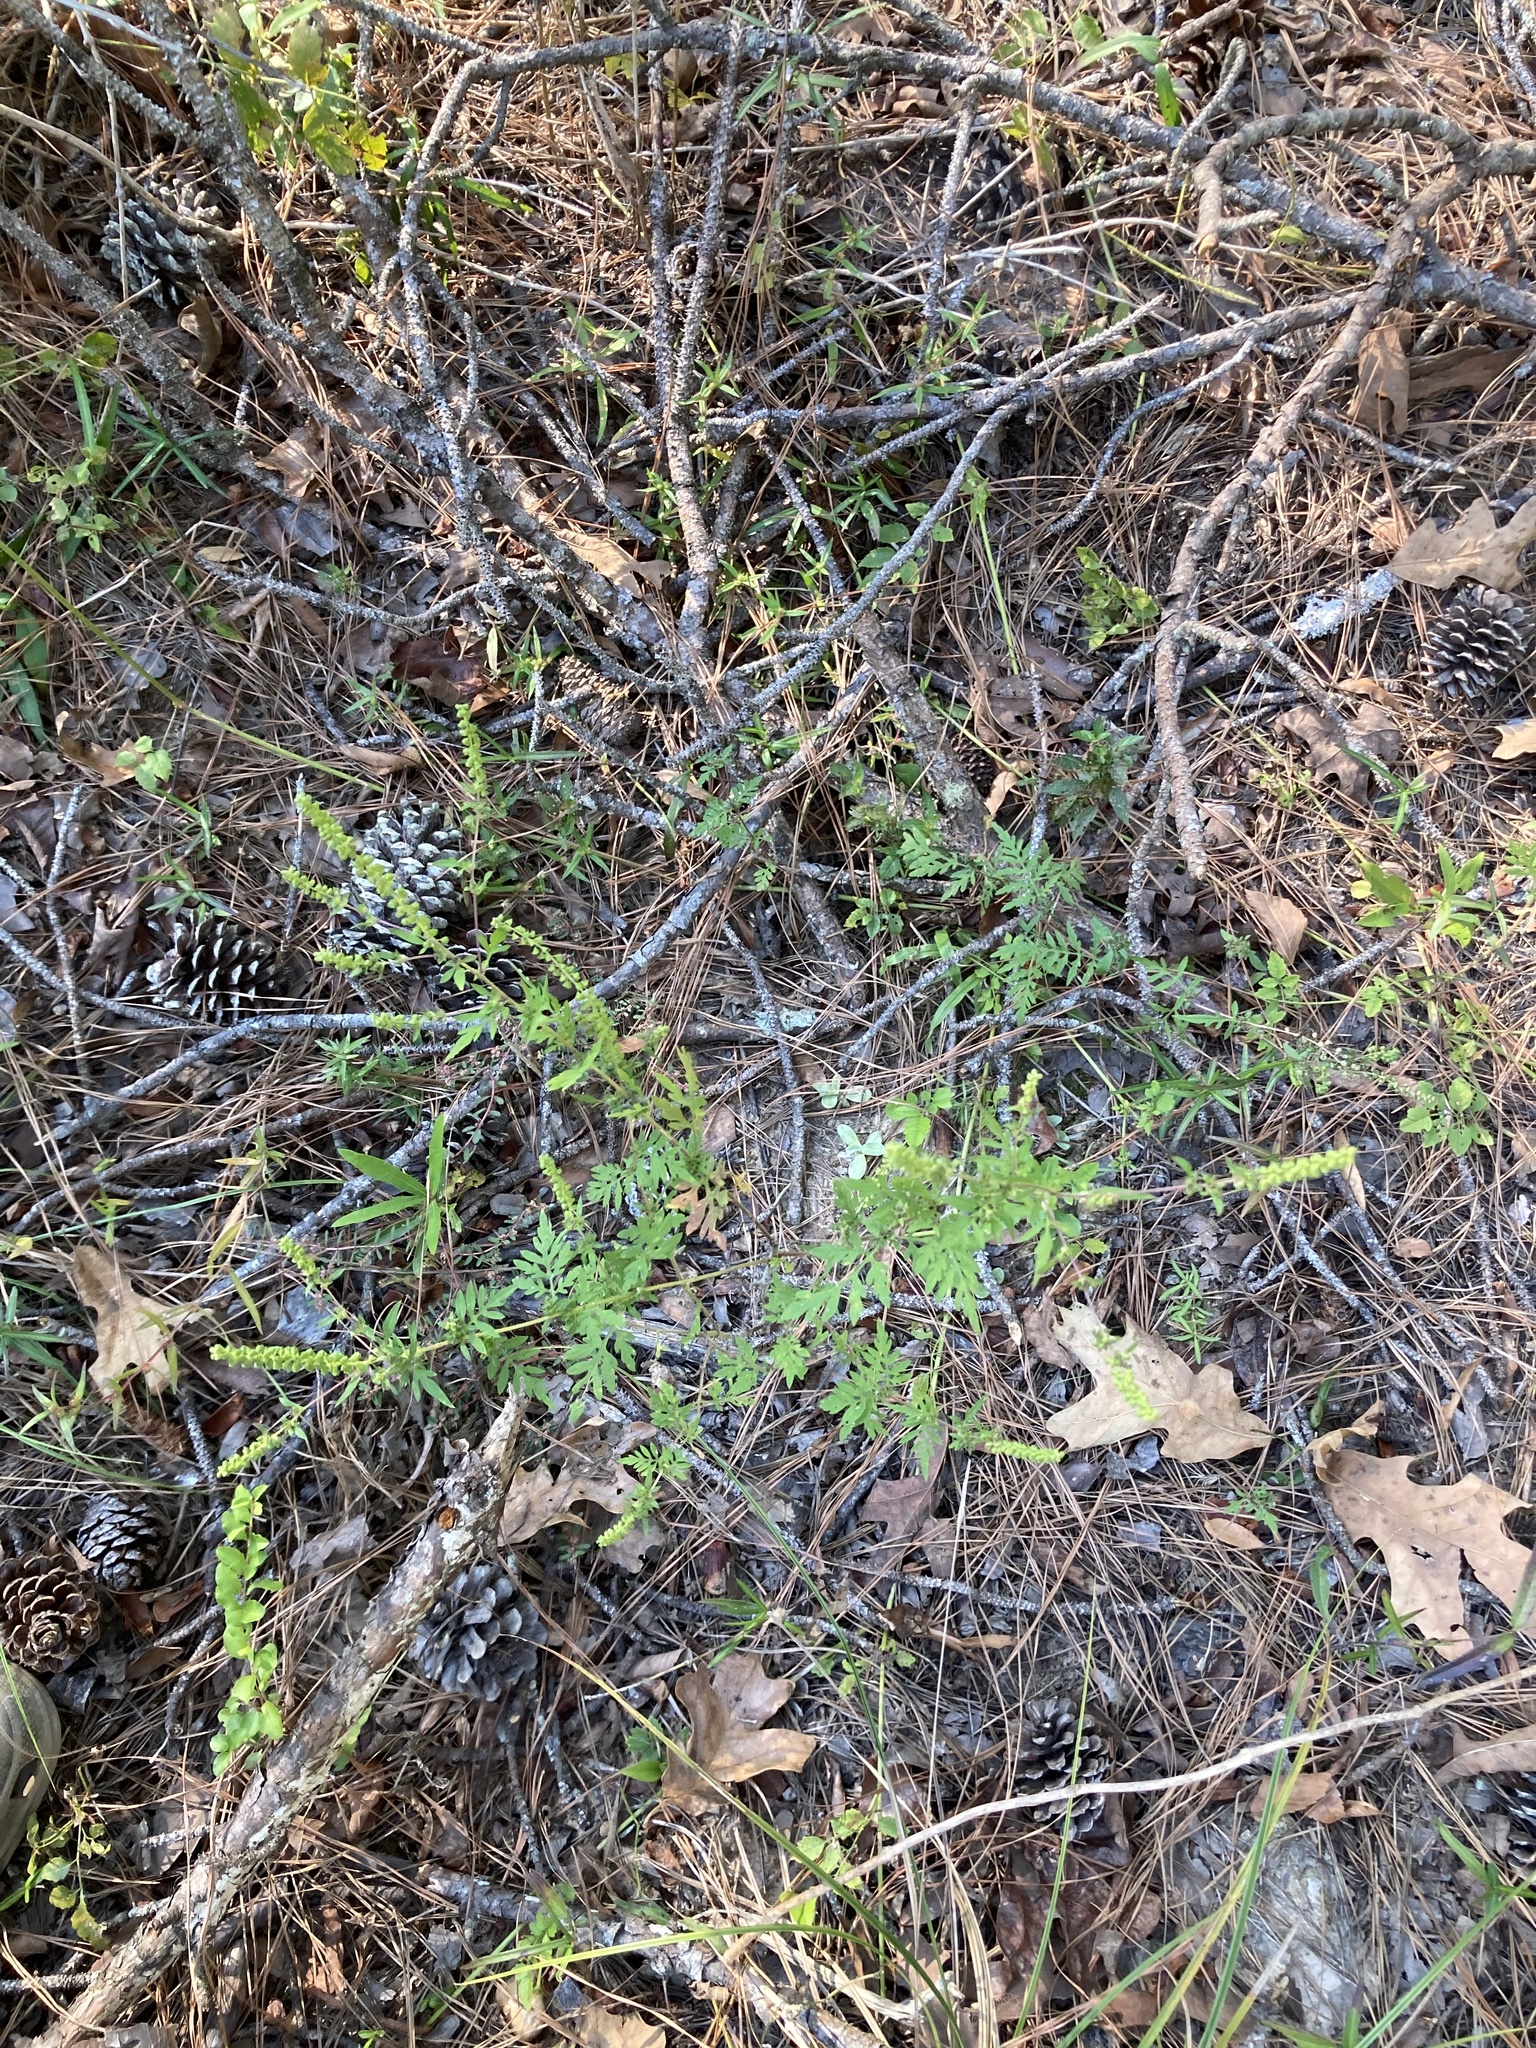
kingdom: Plantae
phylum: Tracheophyta
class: Magnoliopsida
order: Asterales
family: Asteraceae
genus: Ambrosia
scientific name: Ambrosia artemisiifolia
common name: Annual ragweed
